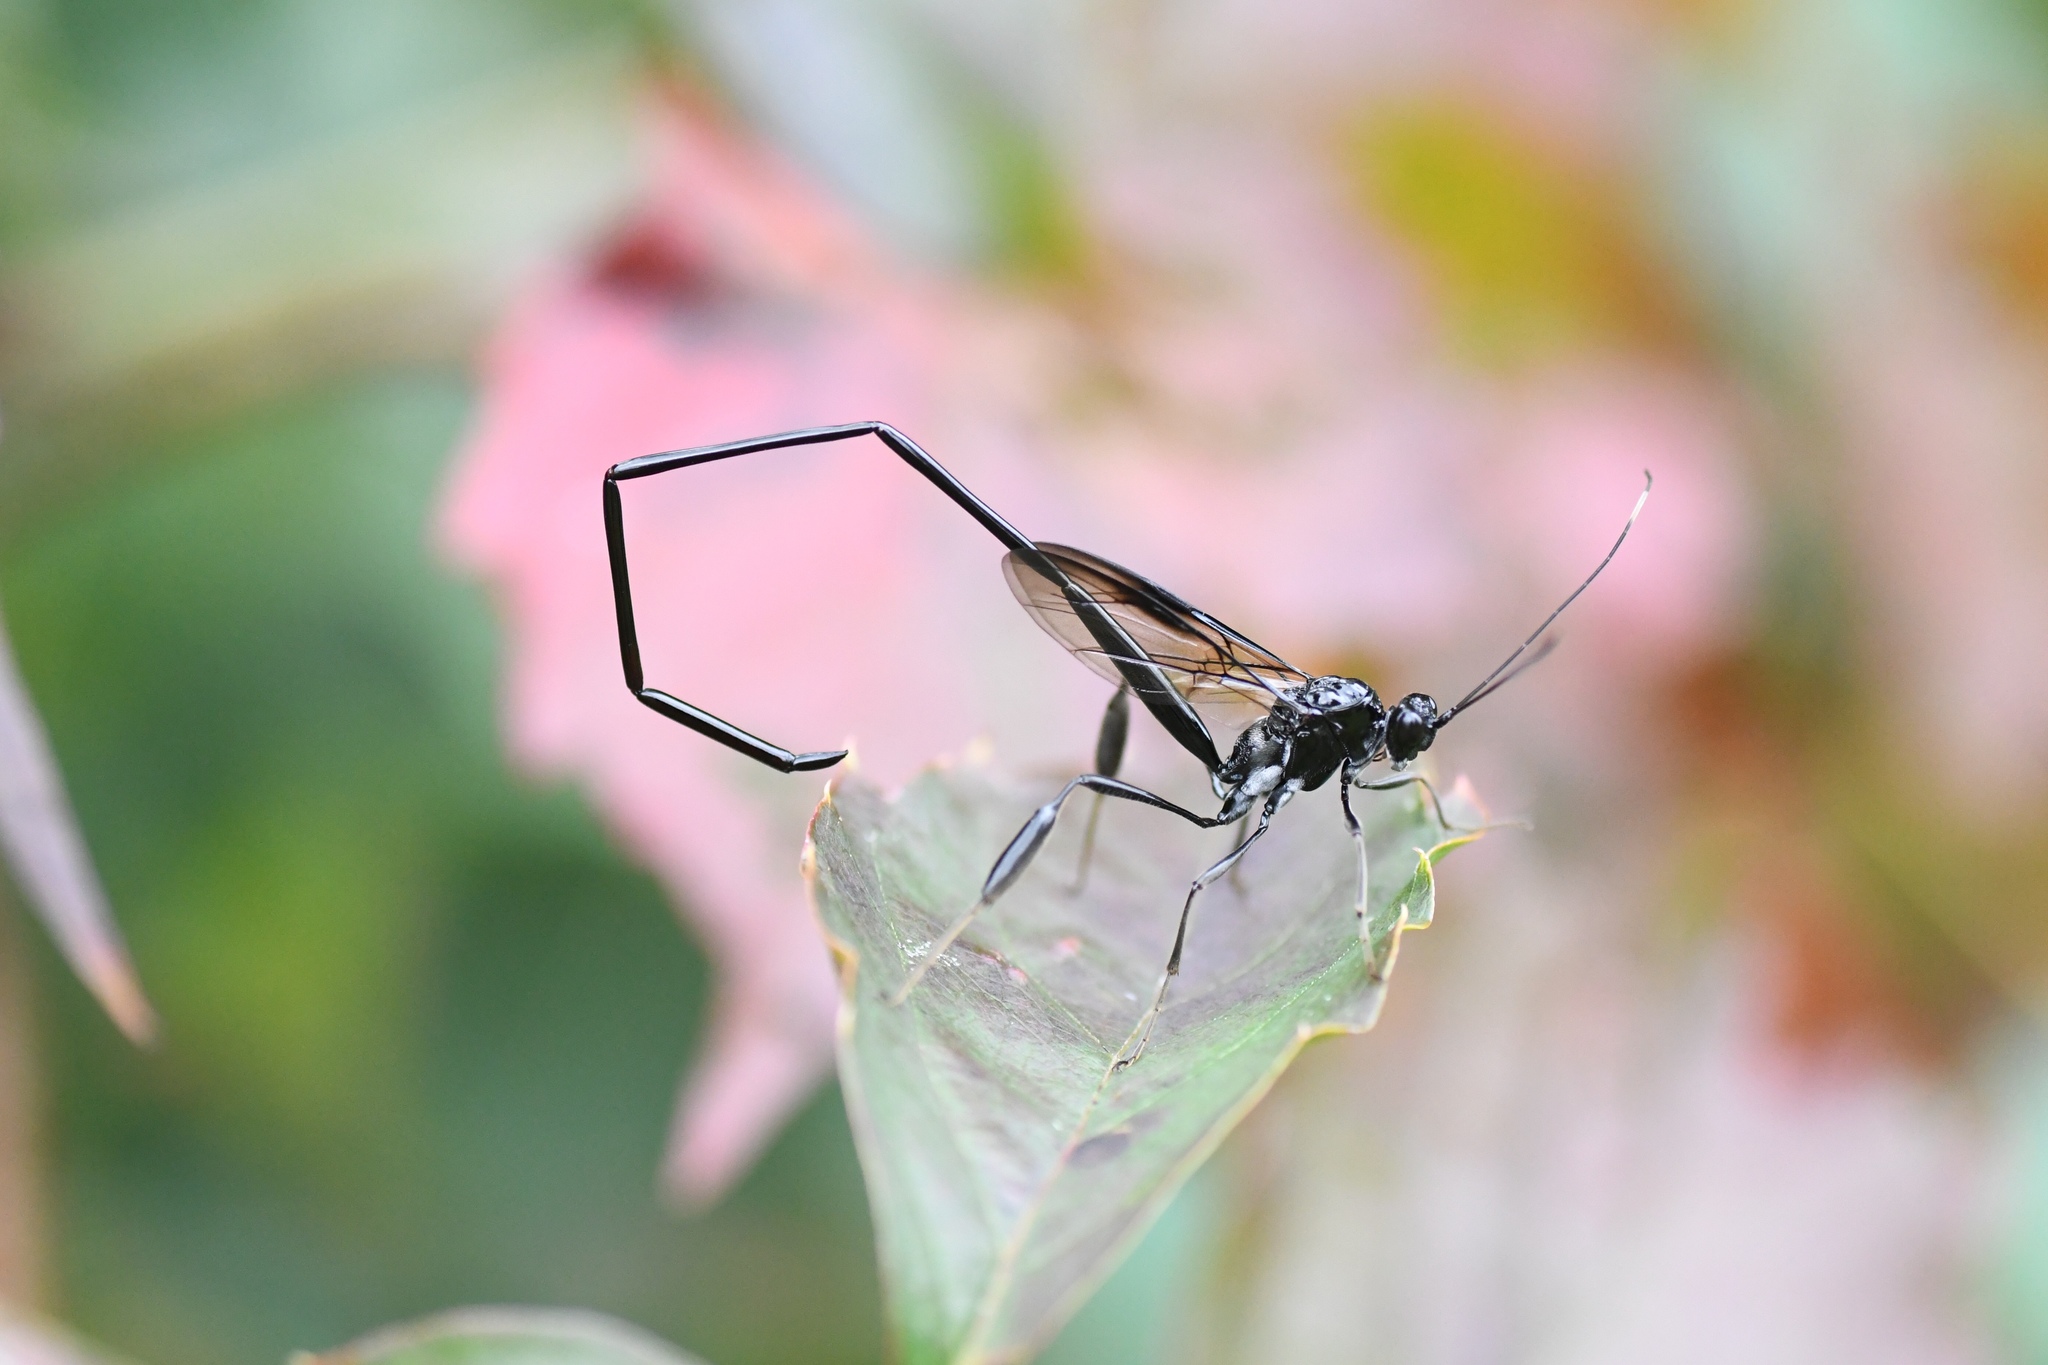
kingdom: Animalia
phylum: Arthropoda
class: Insecta
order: Hymenoptera
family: Pelecinidae
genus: Pelecinus
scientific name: Pelecinus polyturator
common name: American pelecinid wasp
